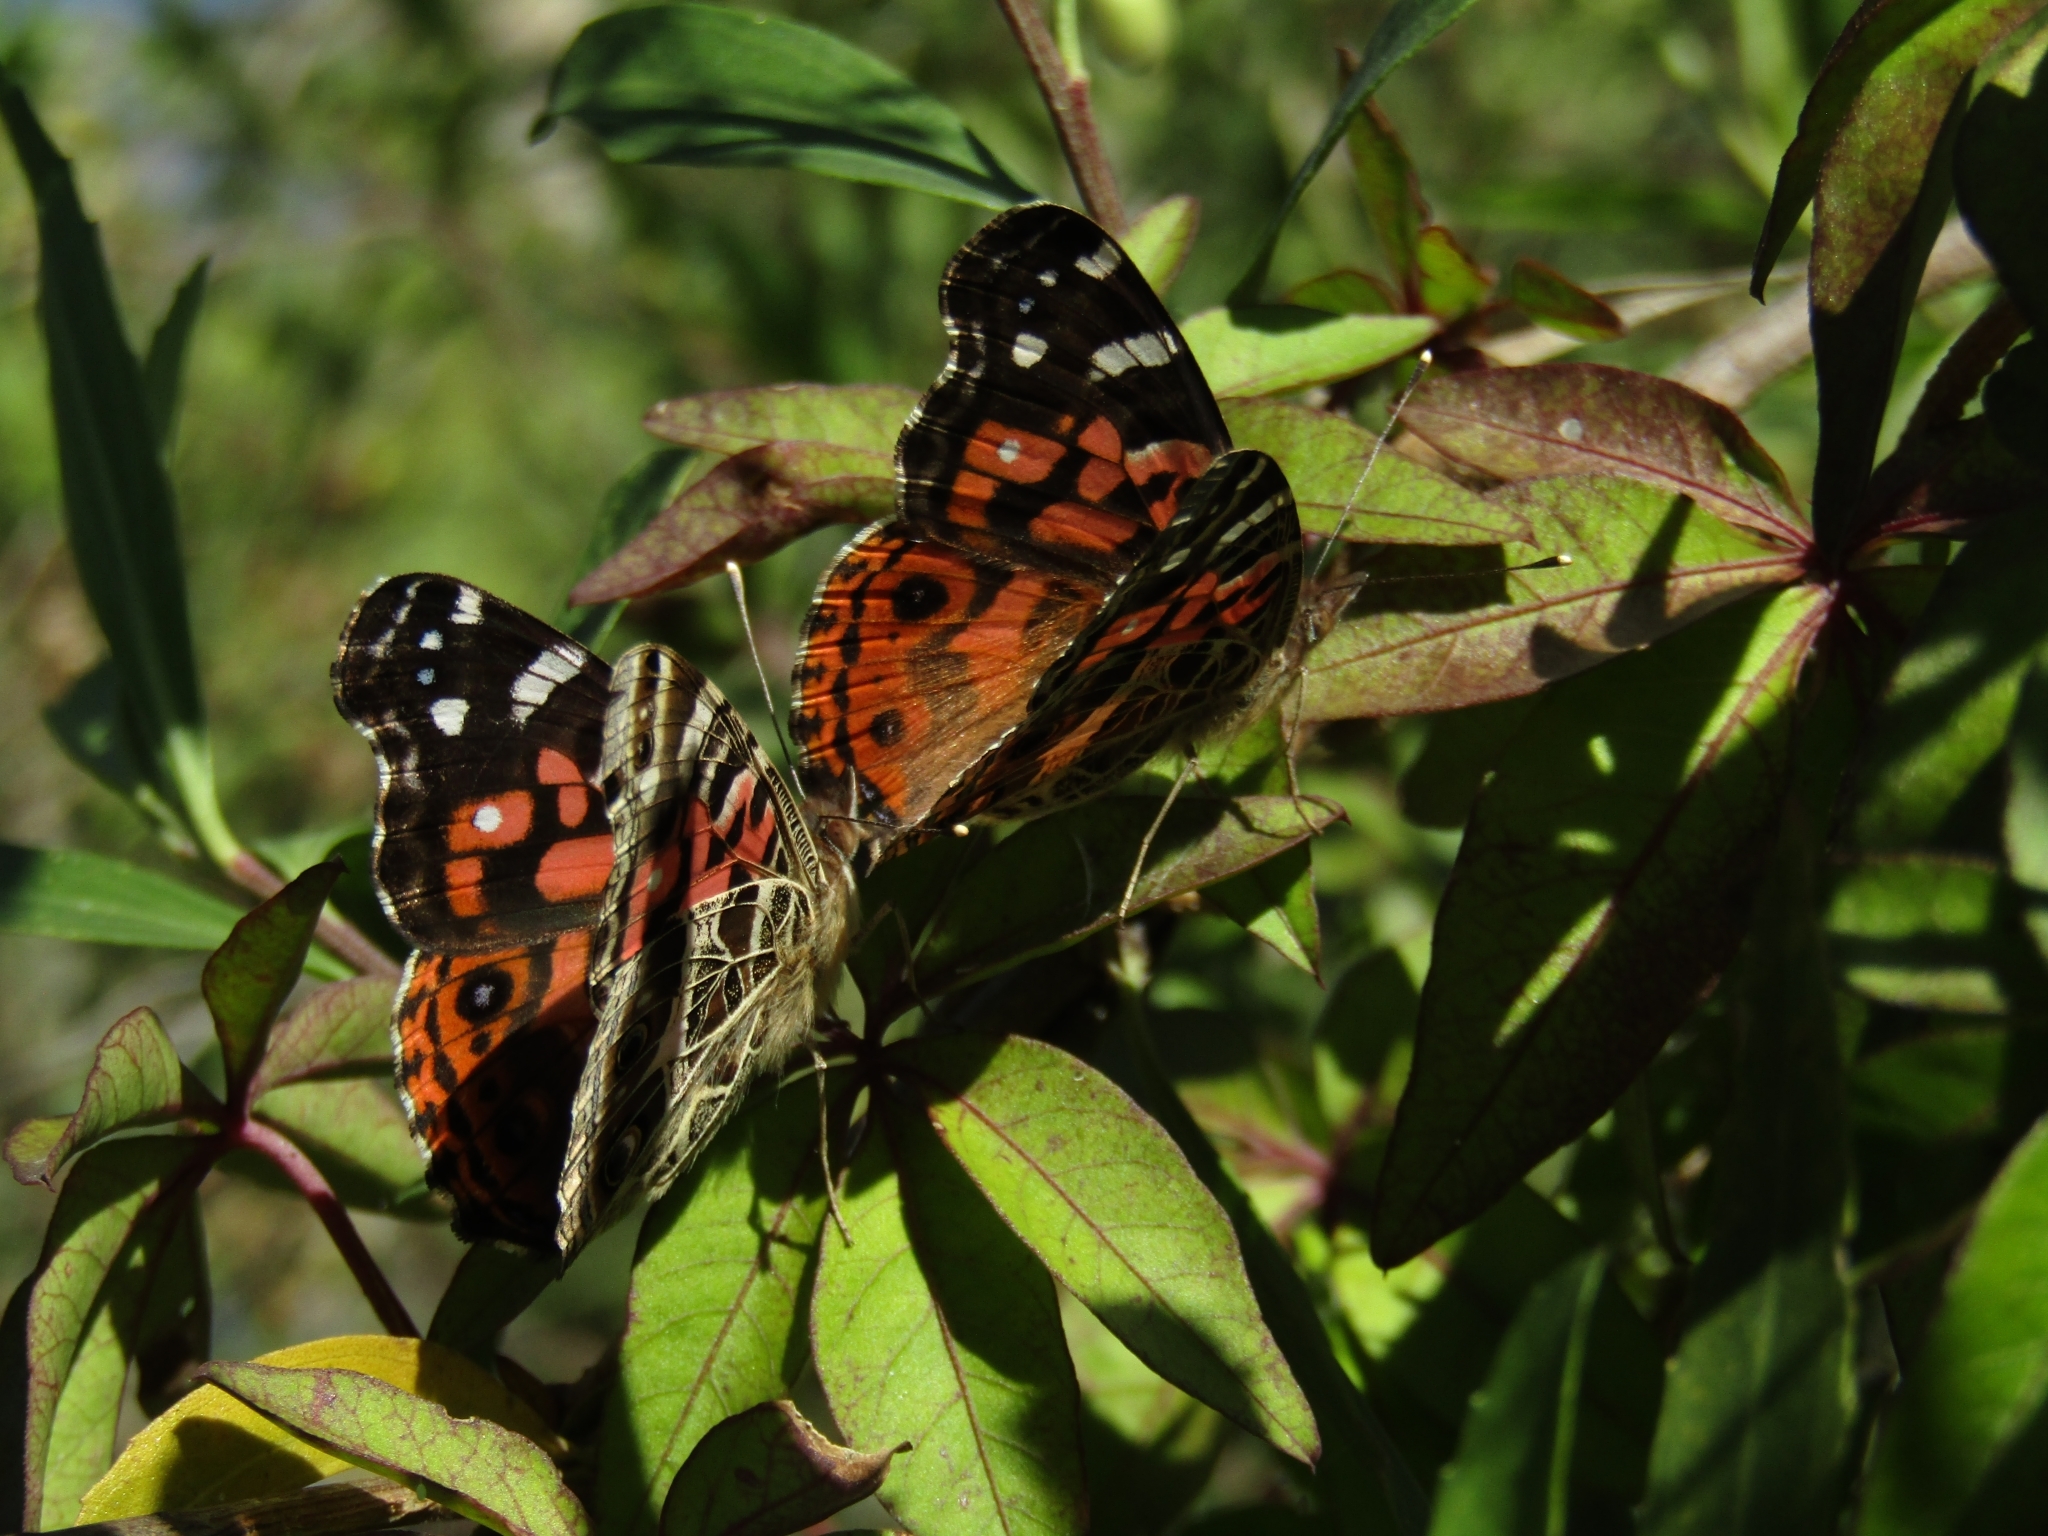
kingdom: Animalia
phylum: Arthropoda
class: Insecta
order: Lepidoptera
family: Nymphalidae
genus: Vanessa
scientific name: Vanessa braziliensis
